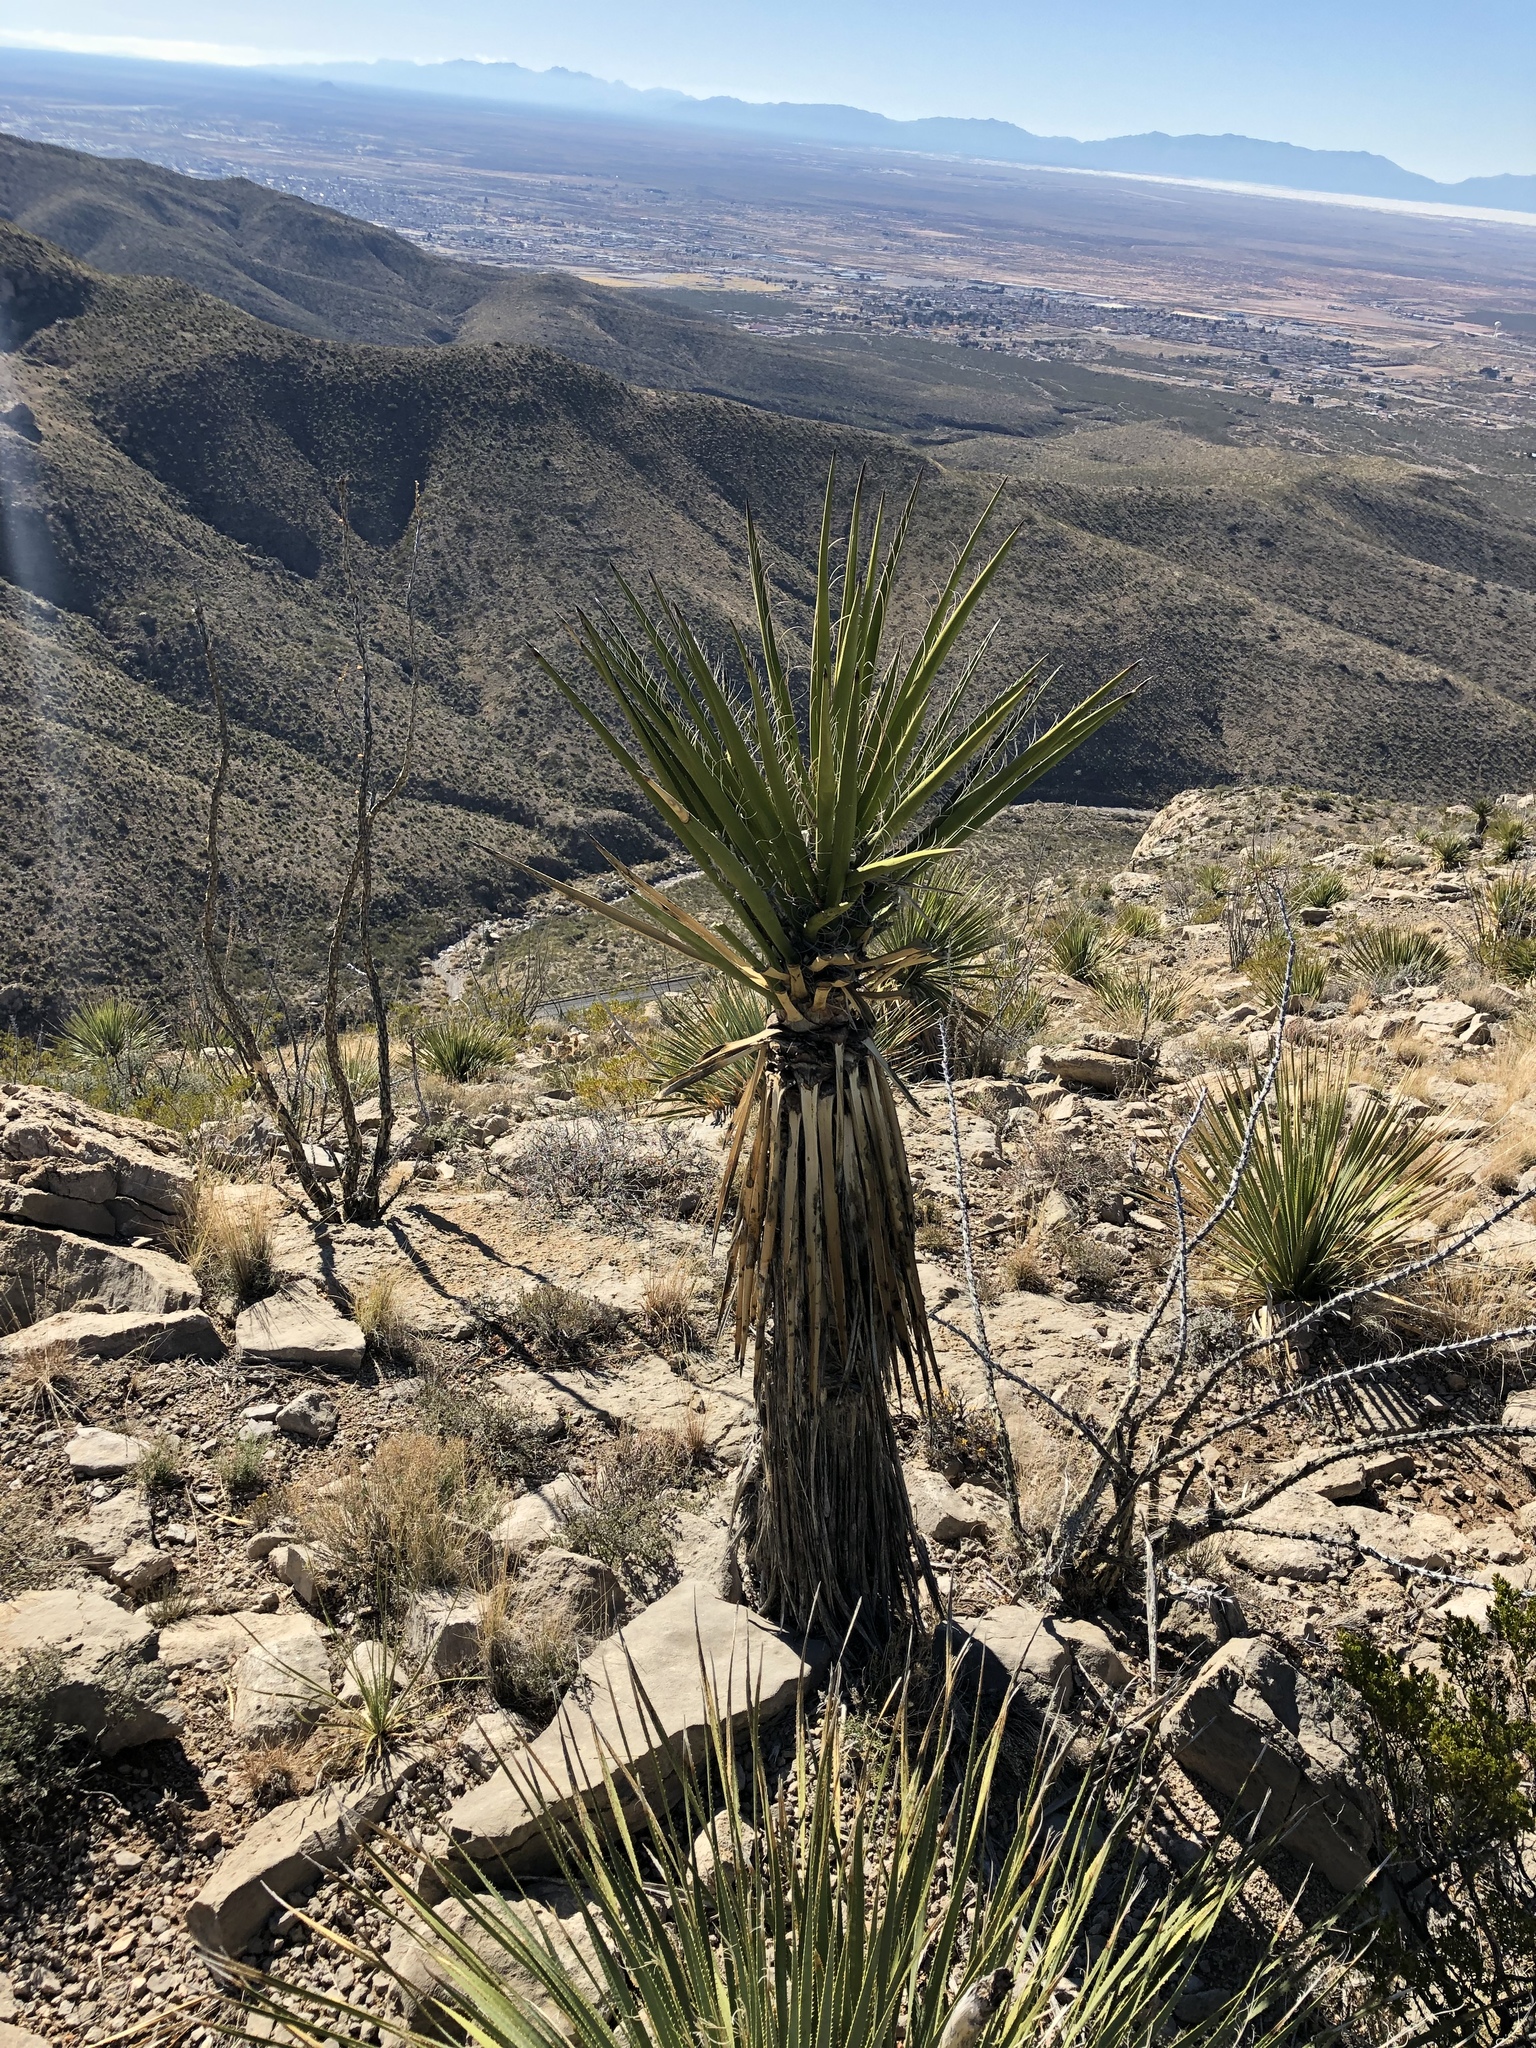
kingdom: Plantae
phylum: Tracheophyta
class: Liliopsida
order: Asparagales
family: Asparagaceae
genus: Yucca
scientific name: Yucca treculiana
